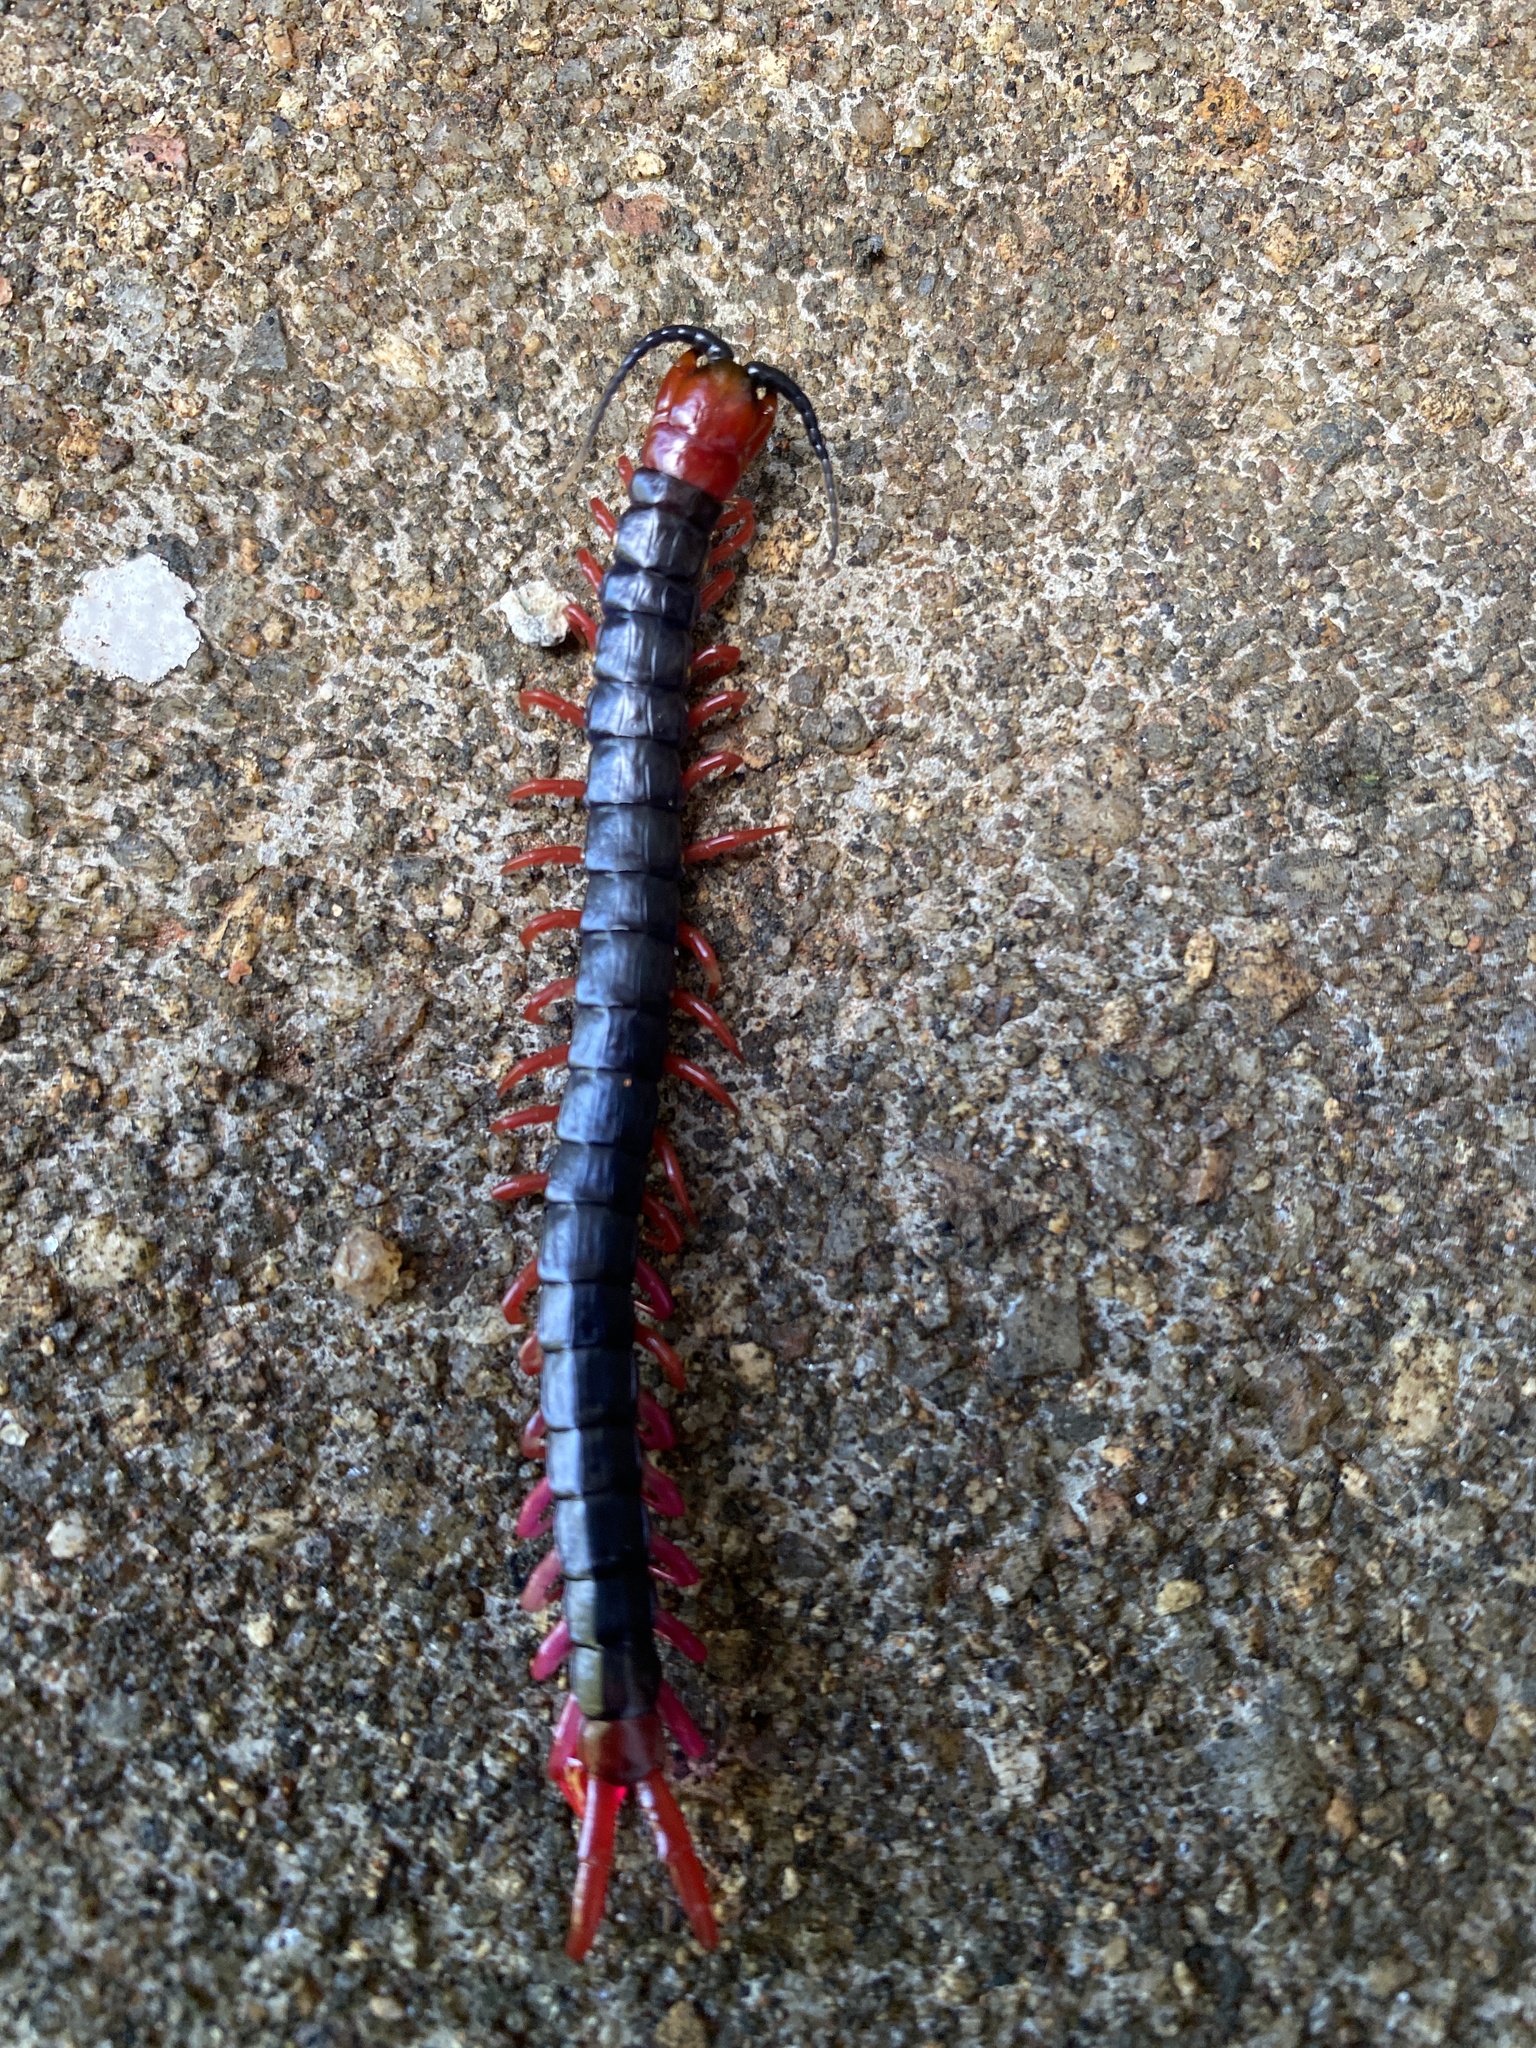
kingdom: Animalia
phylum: Arthropoda
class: Chilopoda
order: Scolopendromorpha
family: Scolopendridae
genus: Cormocephalus
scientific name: Cormocephalus nitidus
